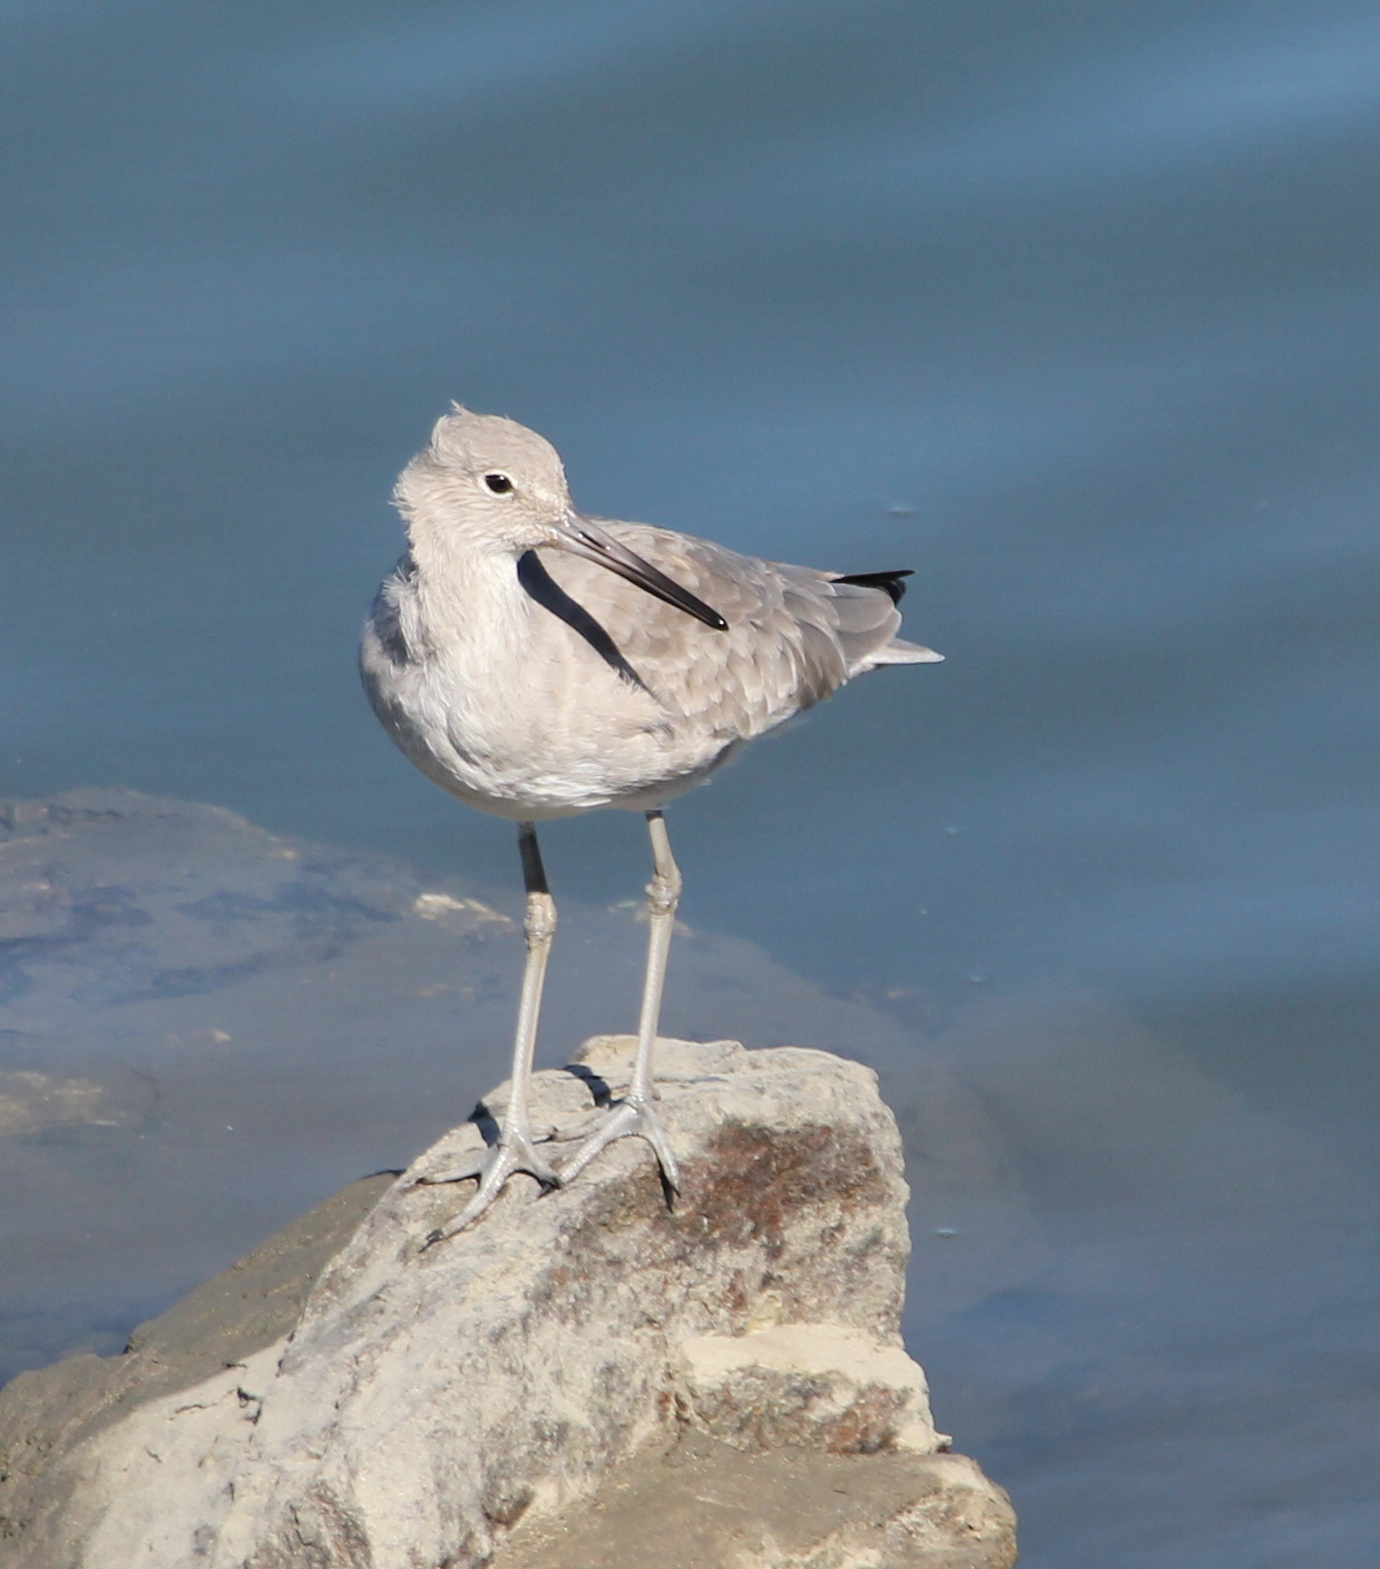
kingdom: Animalia
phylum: Chordata
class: Aves
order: Charadriiformes
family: Scolopacidae
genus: Tringa
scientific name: Tringa semipalmata
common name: Willet
